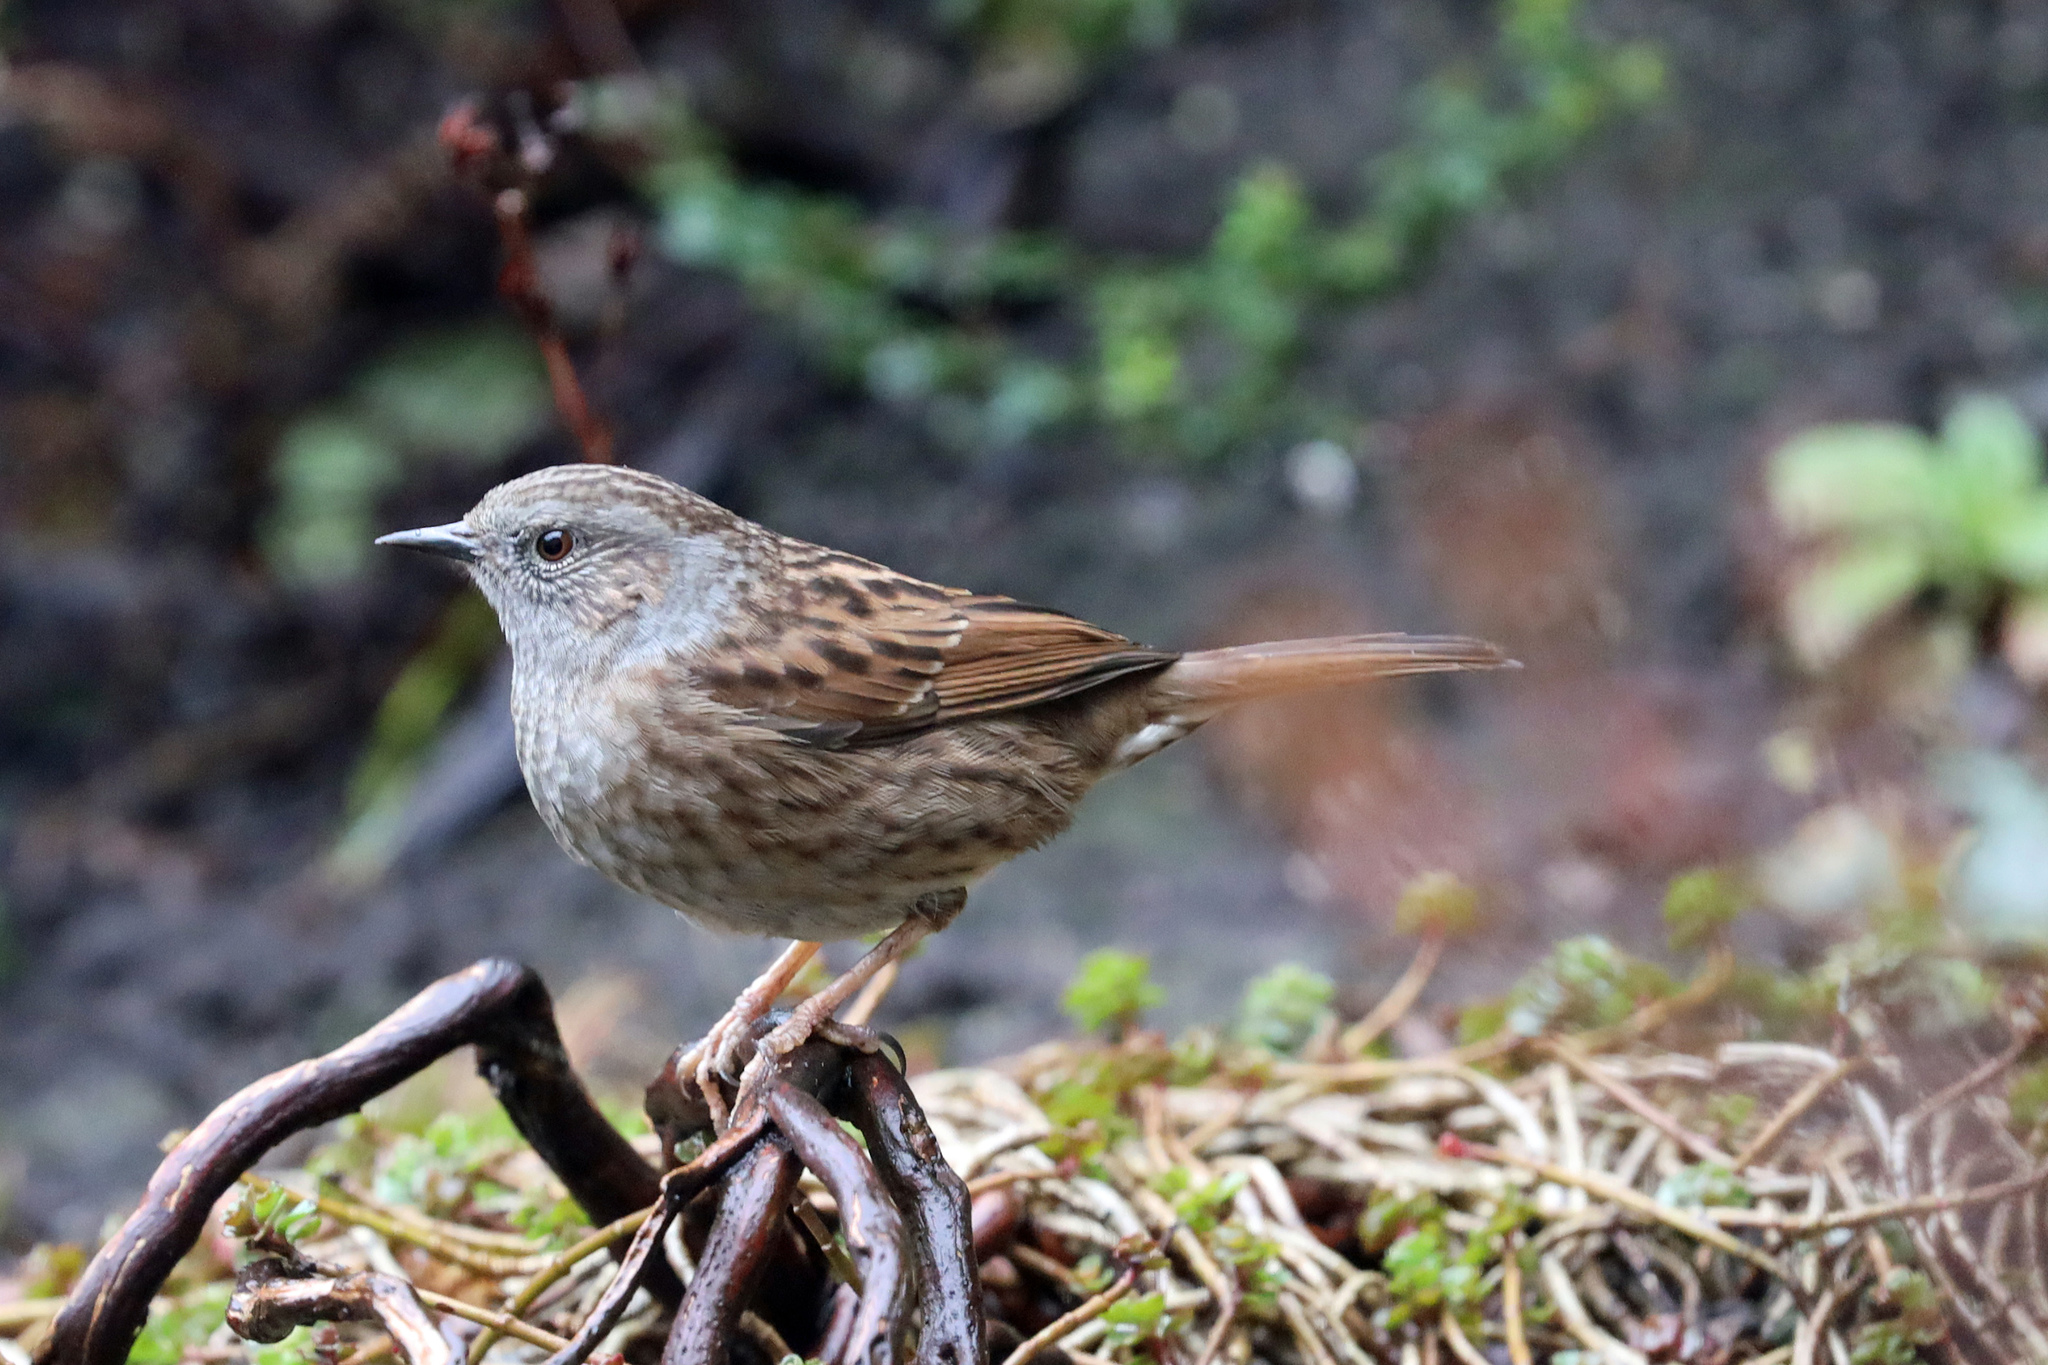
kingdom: Animalia
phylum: Chordata
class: Aves
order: Passeriformes
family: Prunellidae
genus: Prunella
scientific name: Prunella modularis
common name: Dunnock
